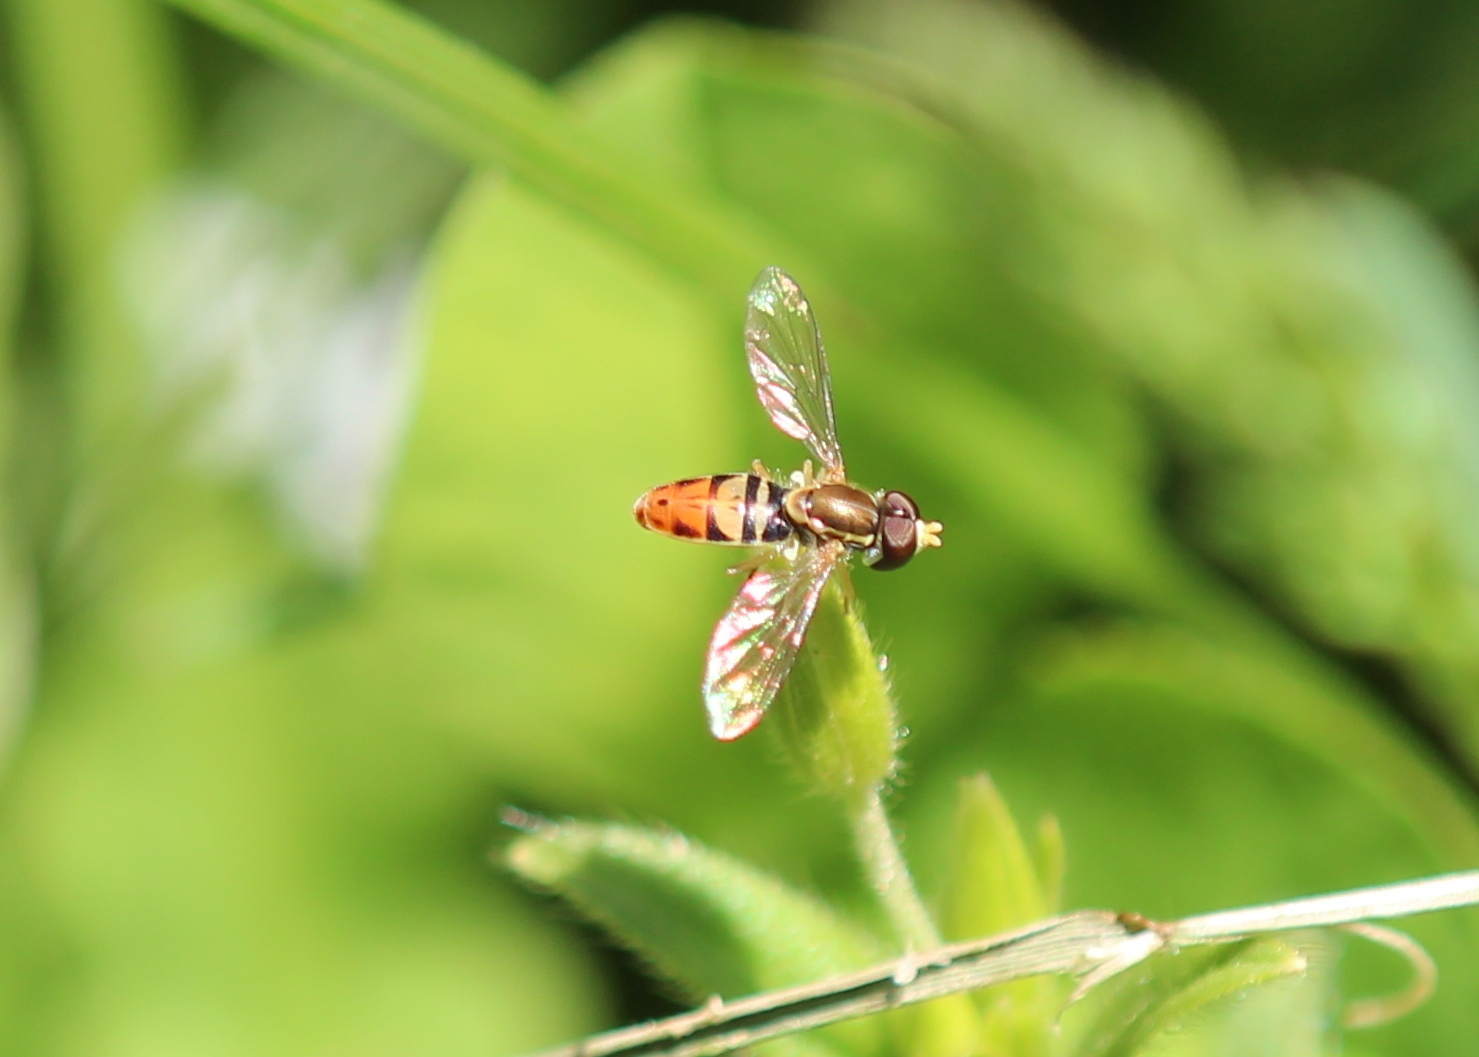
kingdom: Animalia
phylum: Arthropoda
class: Insecta
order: Diptera
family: Syrphidae
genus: Toxomerus
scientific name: Toxomerus marginatus
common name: Syrphid fly
